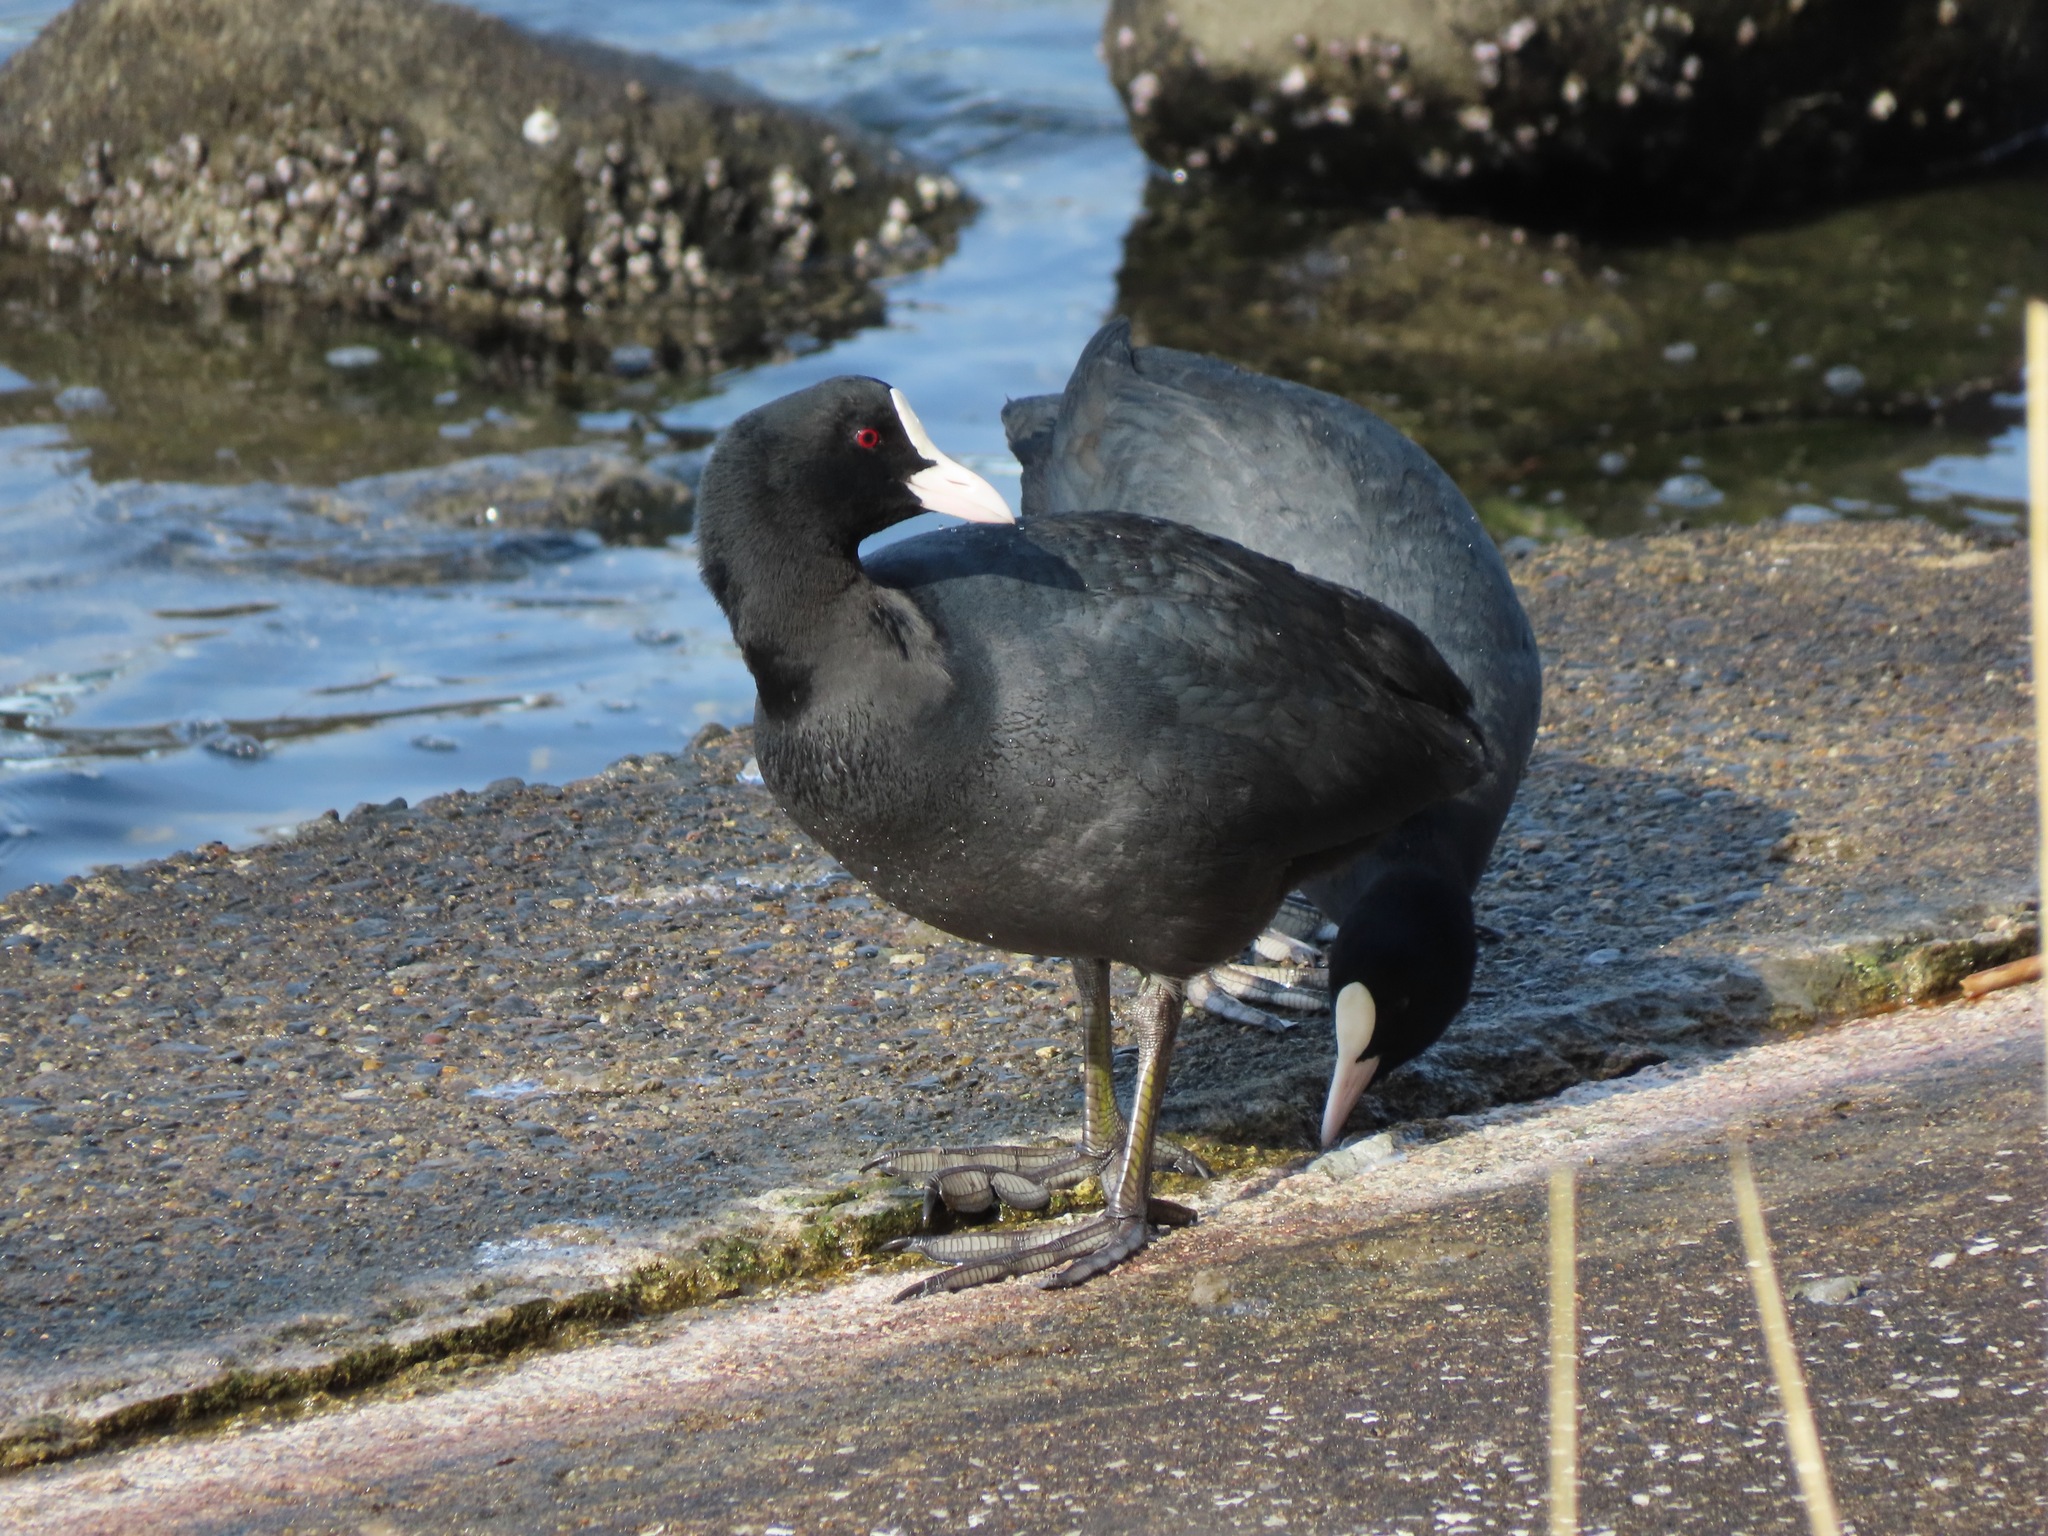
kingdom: Animalia
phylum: Chordata
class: Aves
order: Gruiformes
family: Rallidae
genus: Fulica
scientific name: Fulica atra
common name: Eurasian coot
